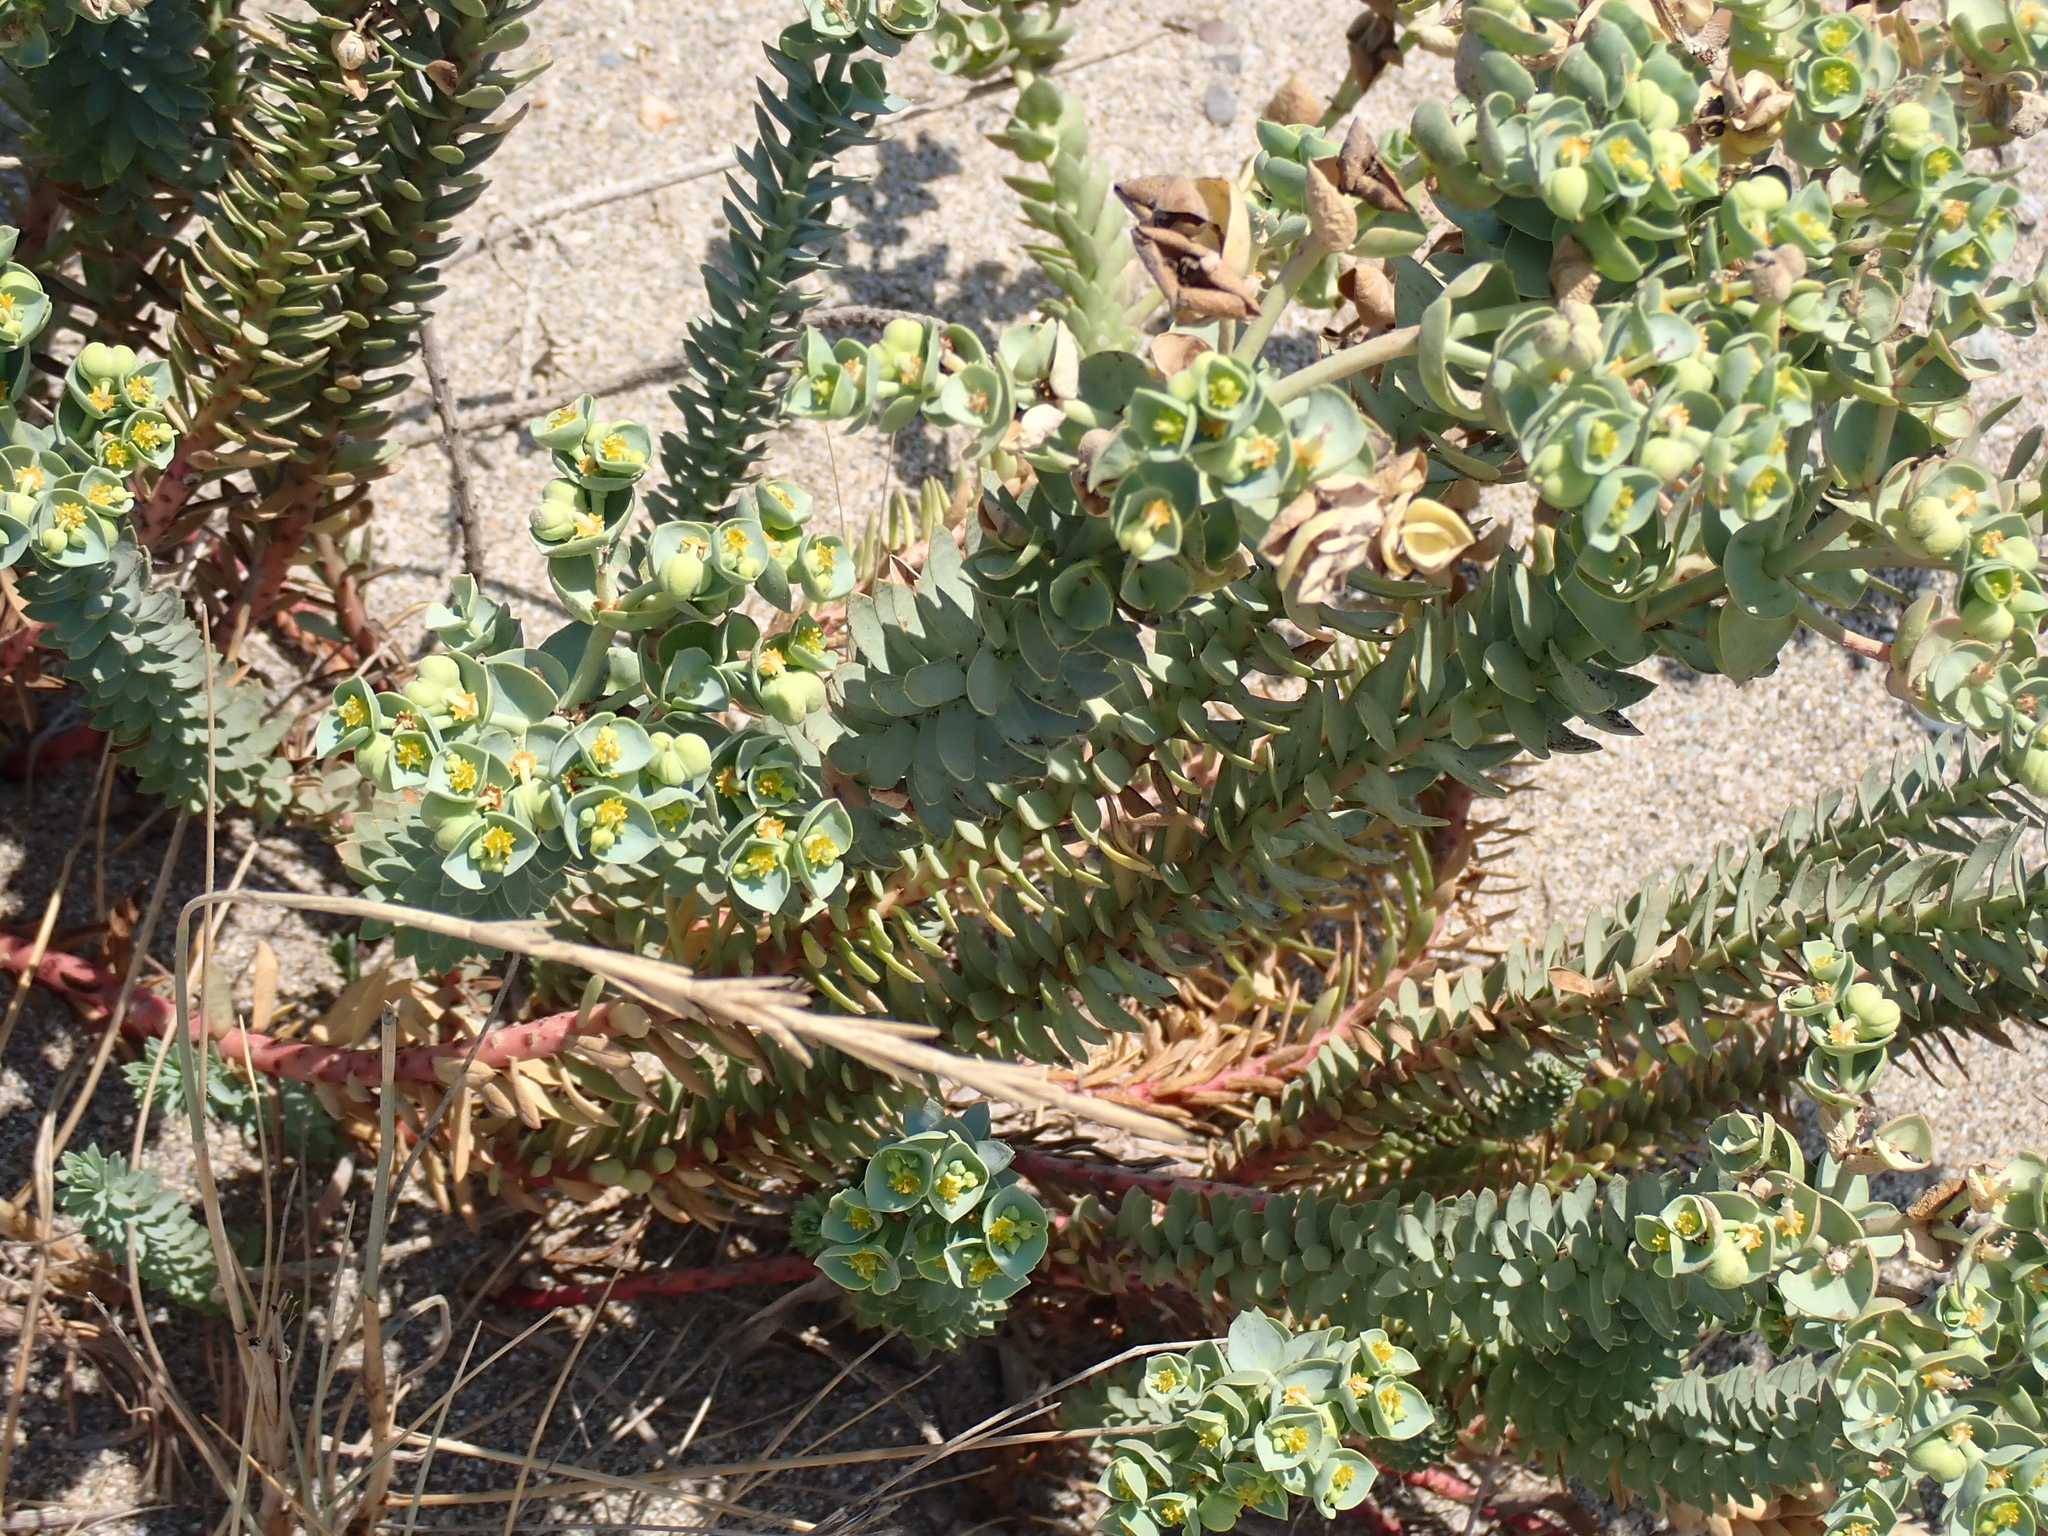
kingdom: Plantae
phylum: Tracheophyta
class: Magnoliopsida
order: Malpighiales
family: Euphorbiaceae
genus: Euphorbia
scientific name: Euphorbia paralias
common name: Sea spurge
